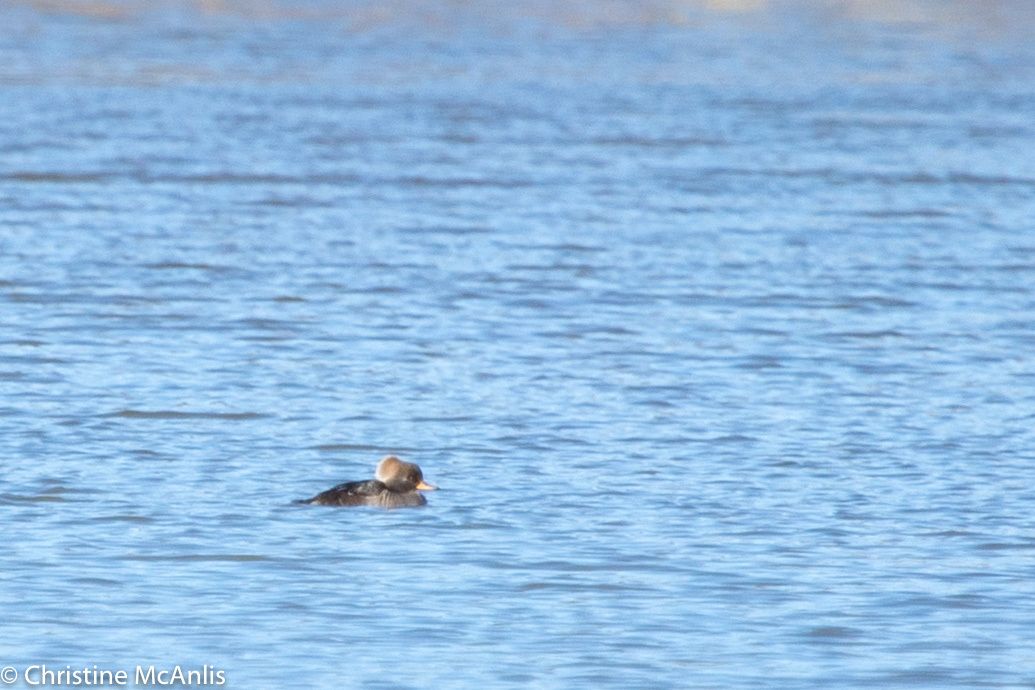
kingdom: Animalia
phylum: Chordata
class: Aves
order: Anseriformes
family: Anatidae
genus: Lophodytes
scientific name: Lophodytes cucullatus
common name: Hooded merganser
